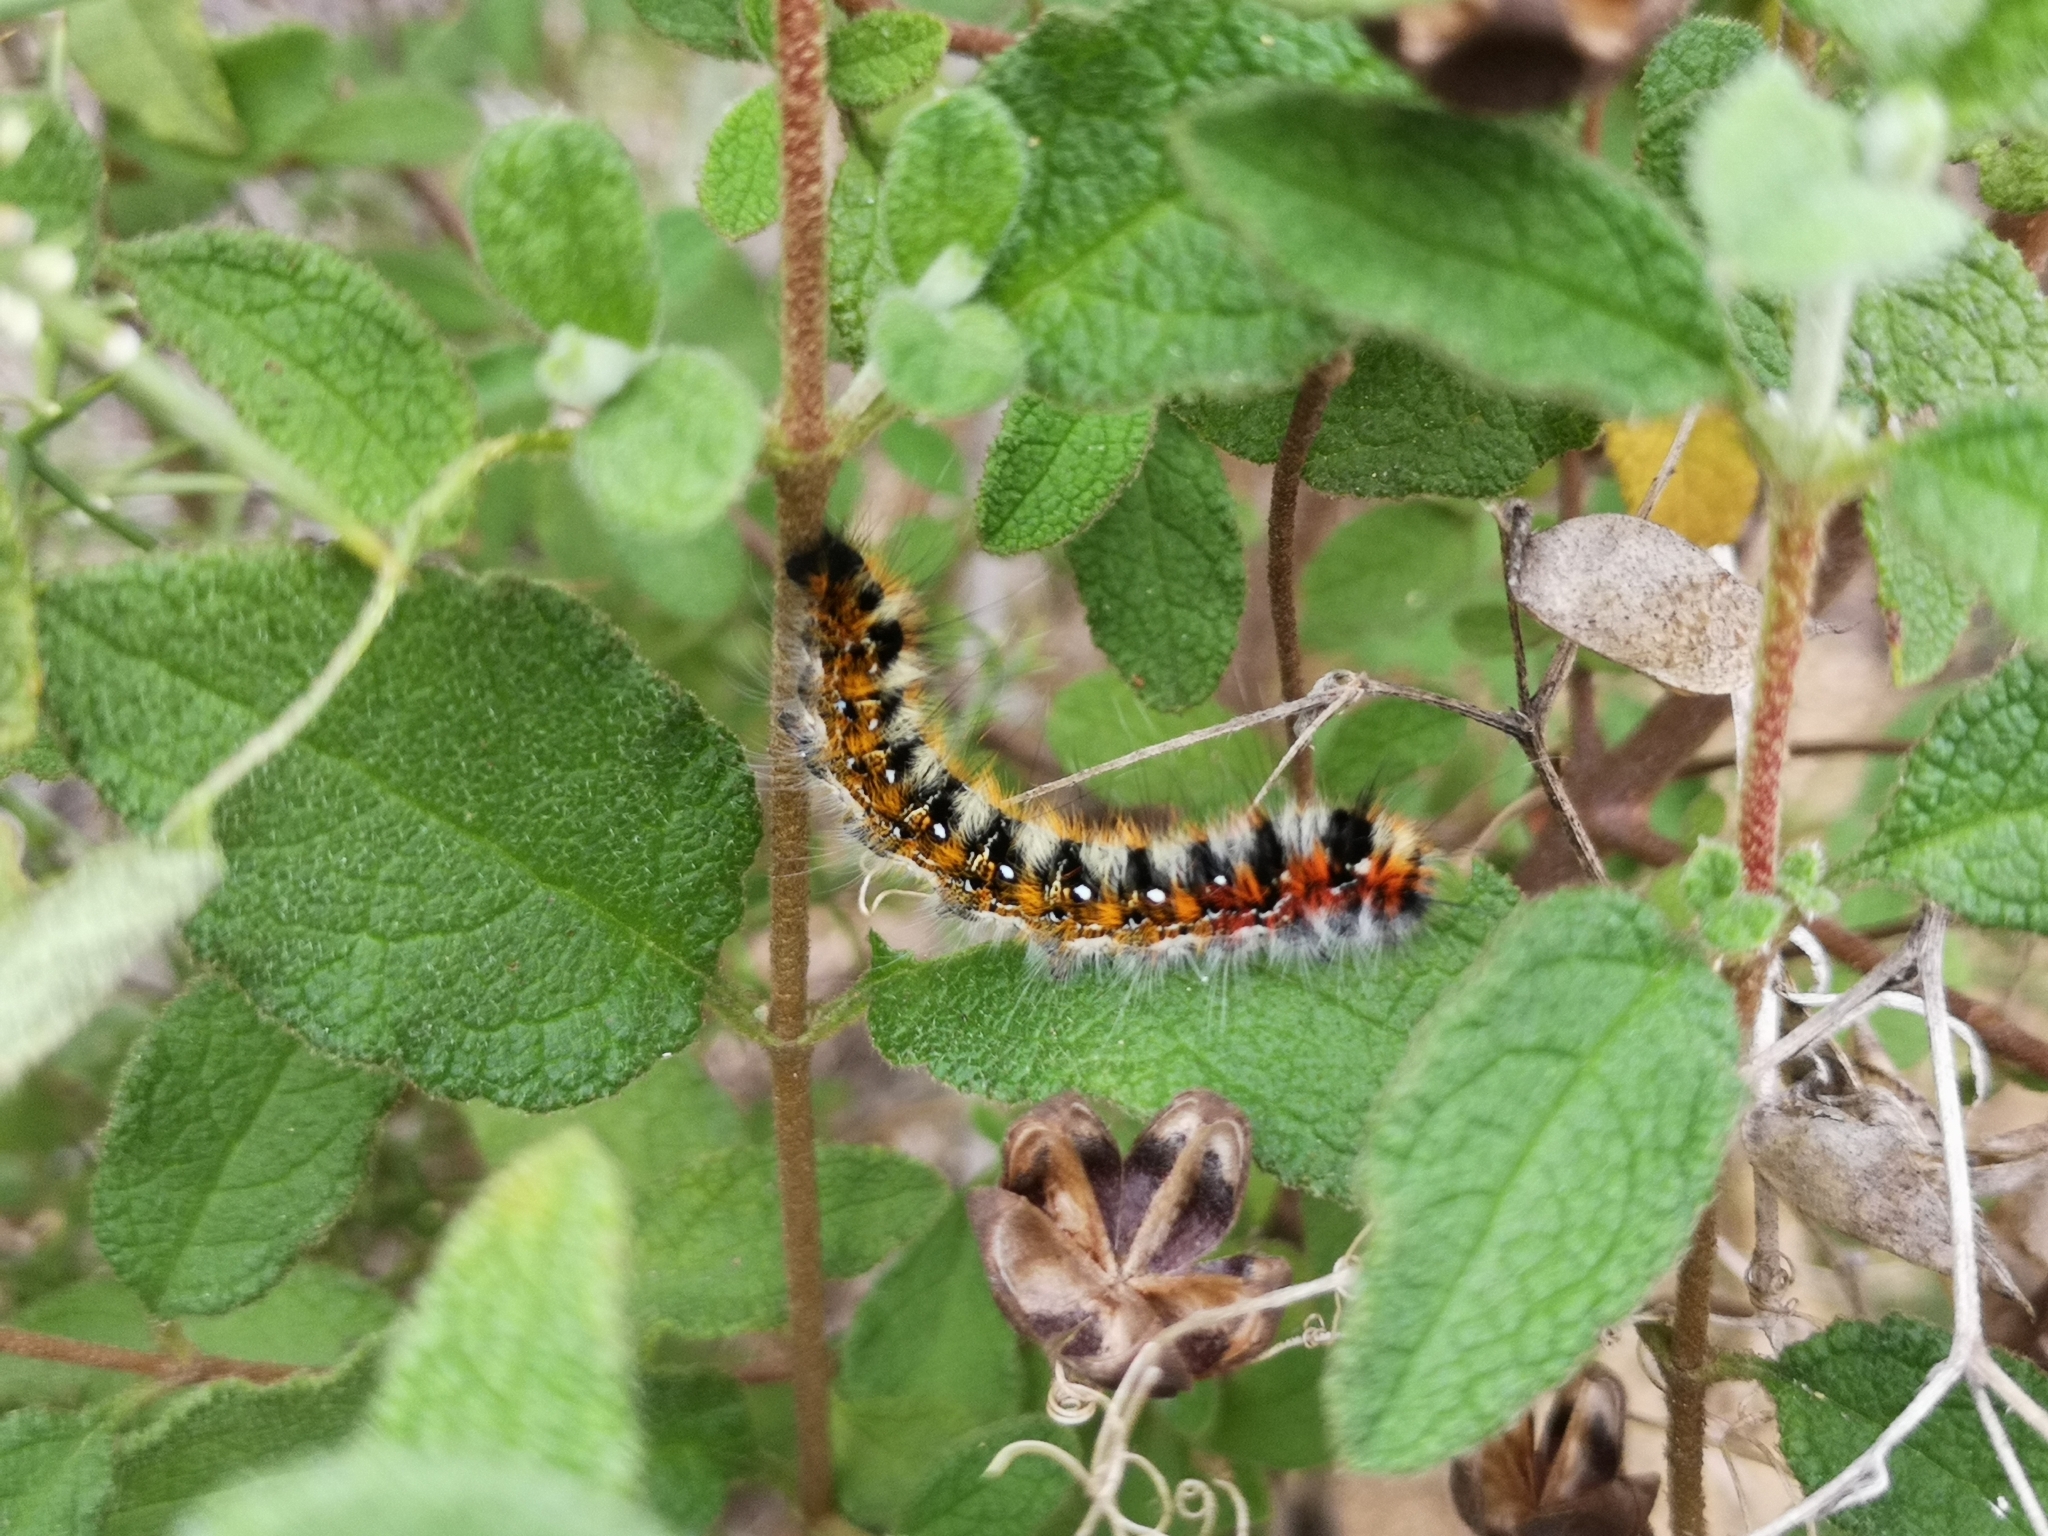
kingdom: Animalia
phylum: Arthropoda
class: Insecta
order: Lepidoptera
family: Lasiocampidae
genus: Psilogaster
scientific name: Psilogaster loti
